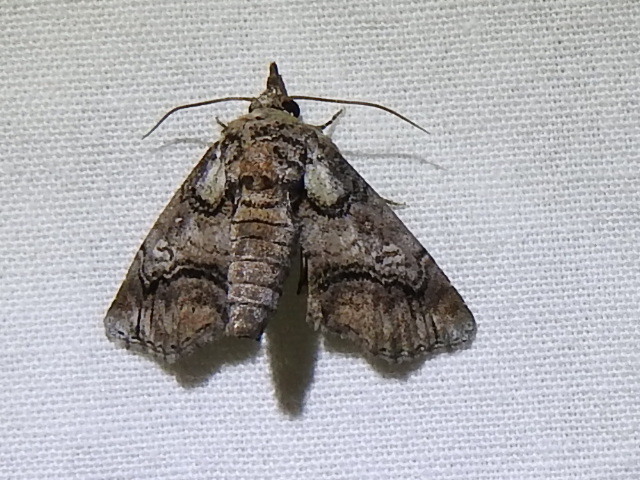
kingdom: Animalia
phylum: Arthropoda
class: Insecta
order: Lepidoptera
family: Euteliidae
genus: Paectes
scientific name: Paectes abrostoloides
